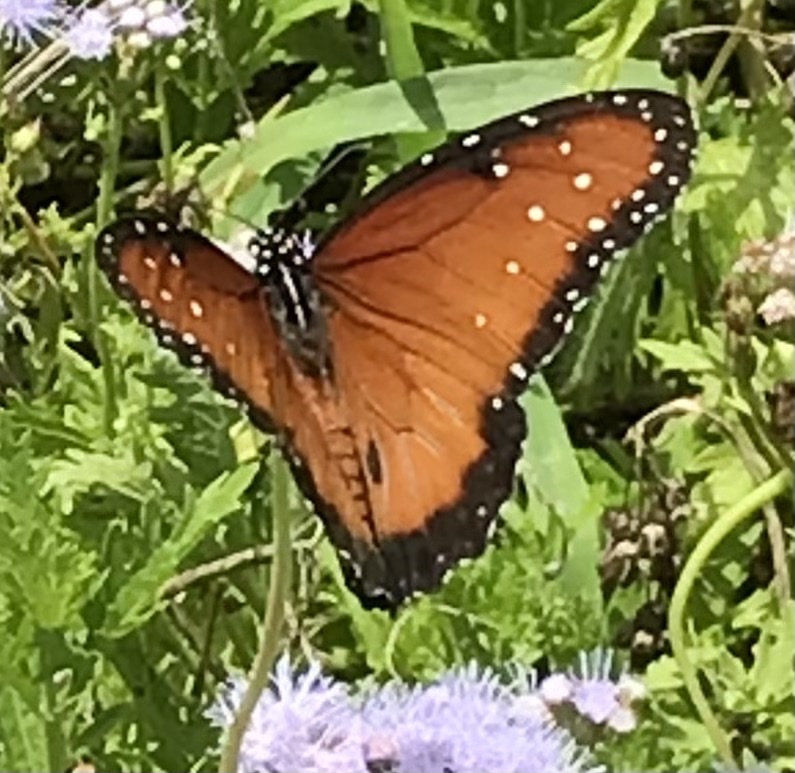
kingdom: Animalia
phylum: Arthropoda
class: Insecta
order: Lepidoptera
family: Nymphalidae
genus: Danaus
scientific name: Danaus gilippus
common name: Queen
